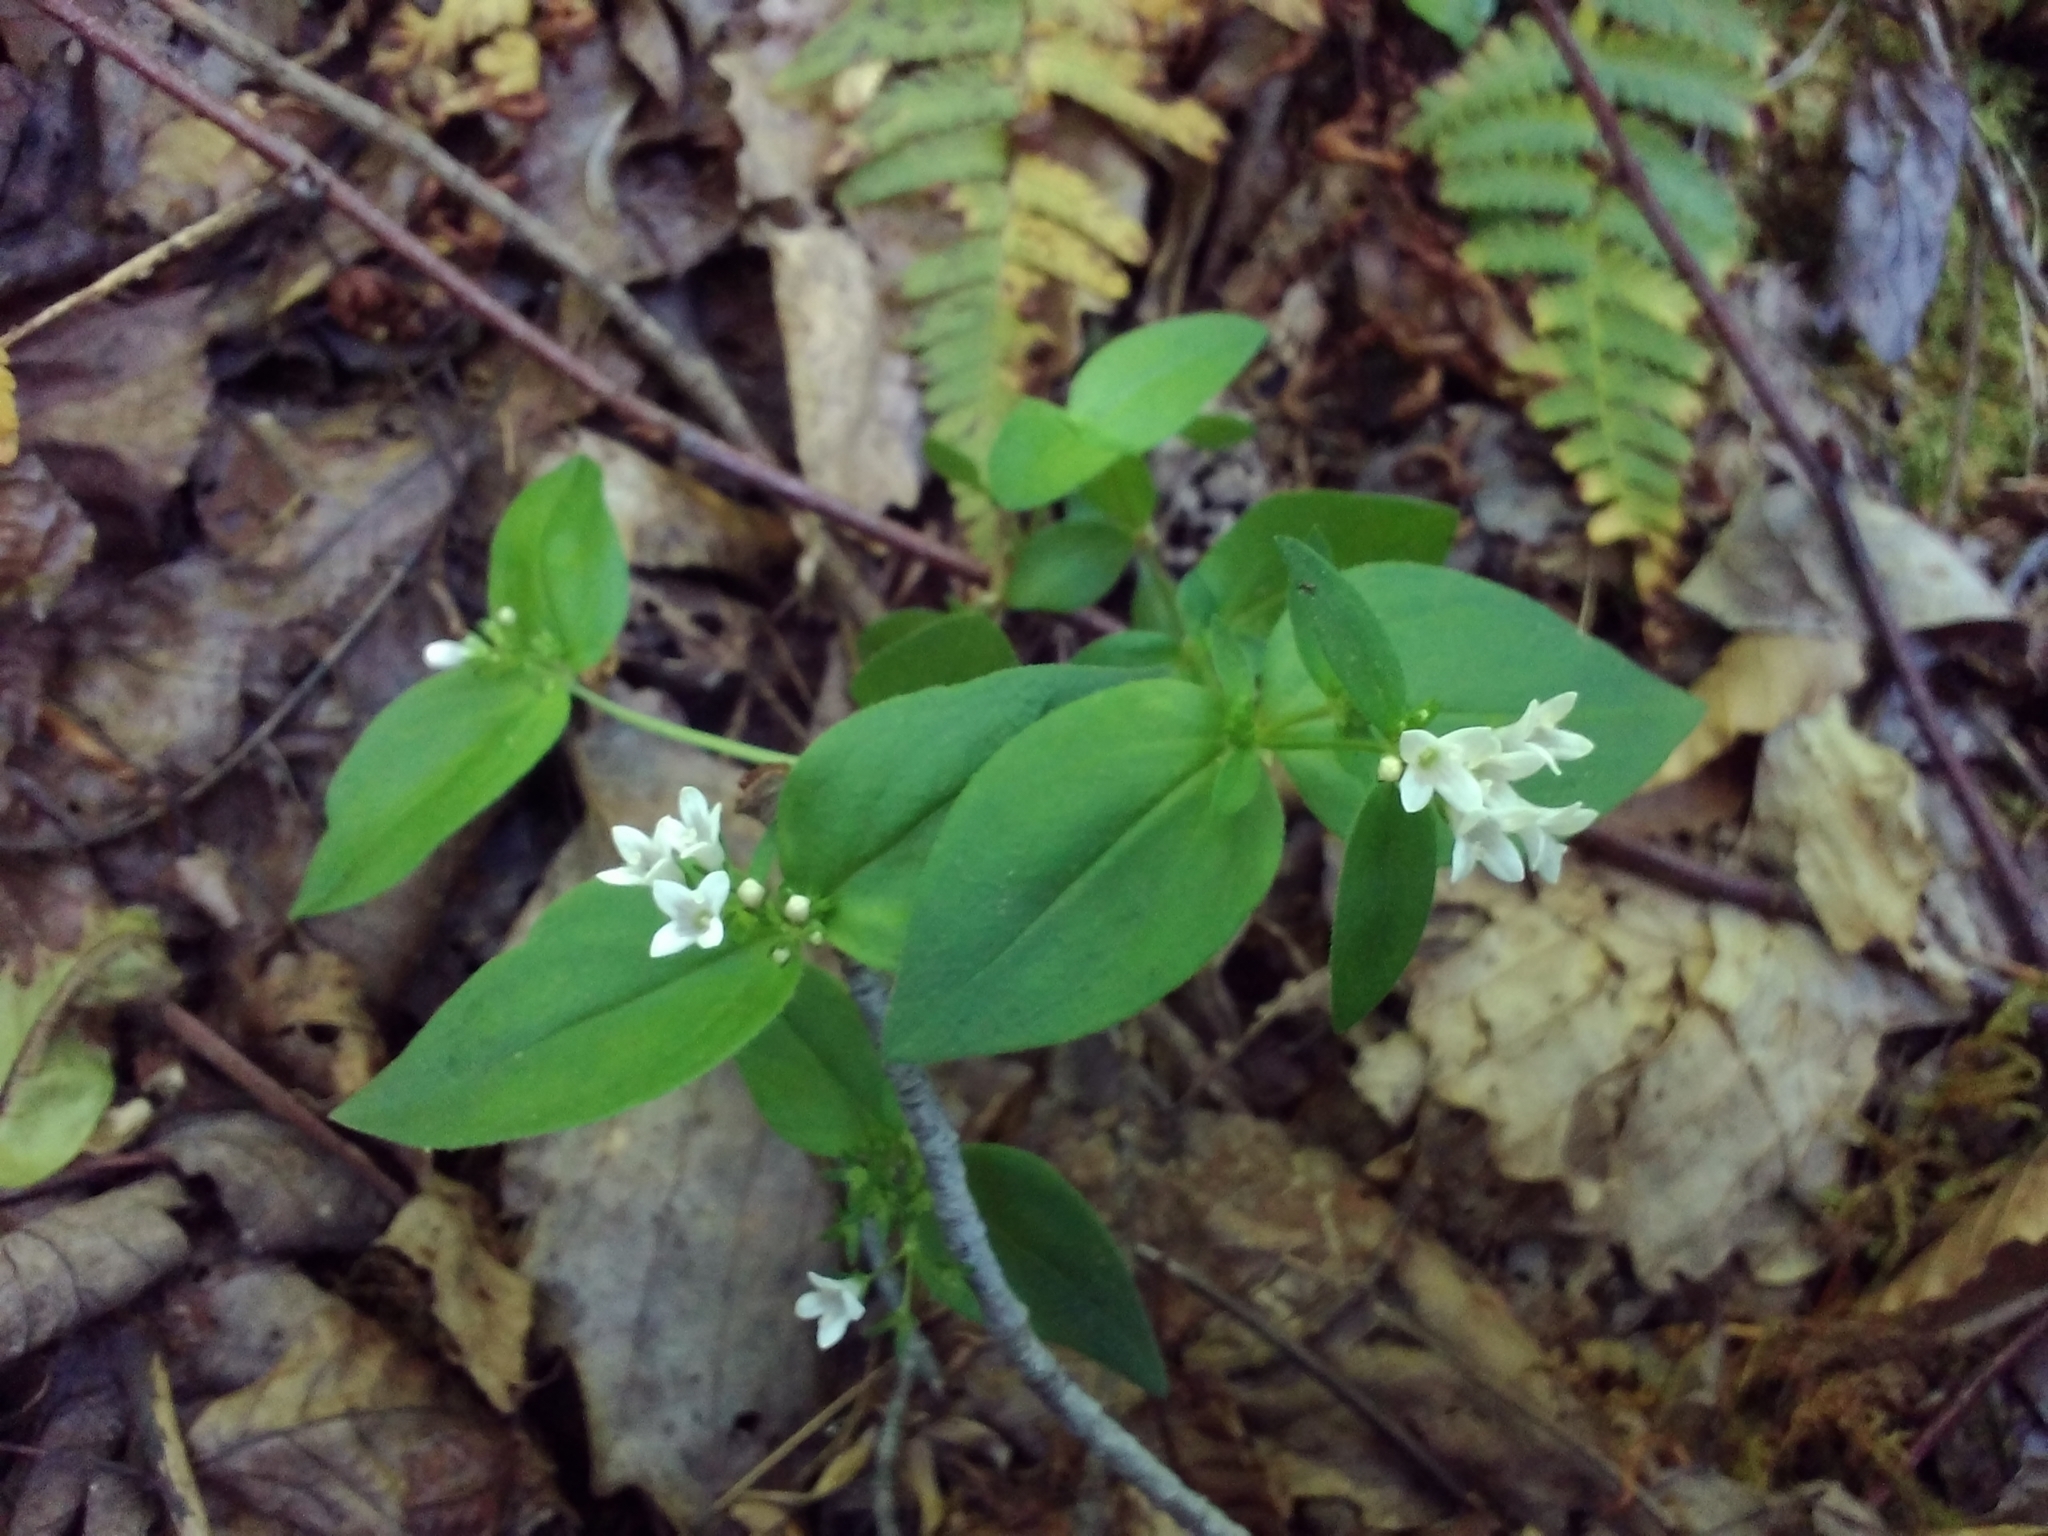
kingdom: Plantae
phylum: Tracheophyta
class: Magnoliopsida
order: Gentianales
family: Rubiaceae
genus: Houstonia
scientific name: Houstonia purpurea
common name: Summer bluet
